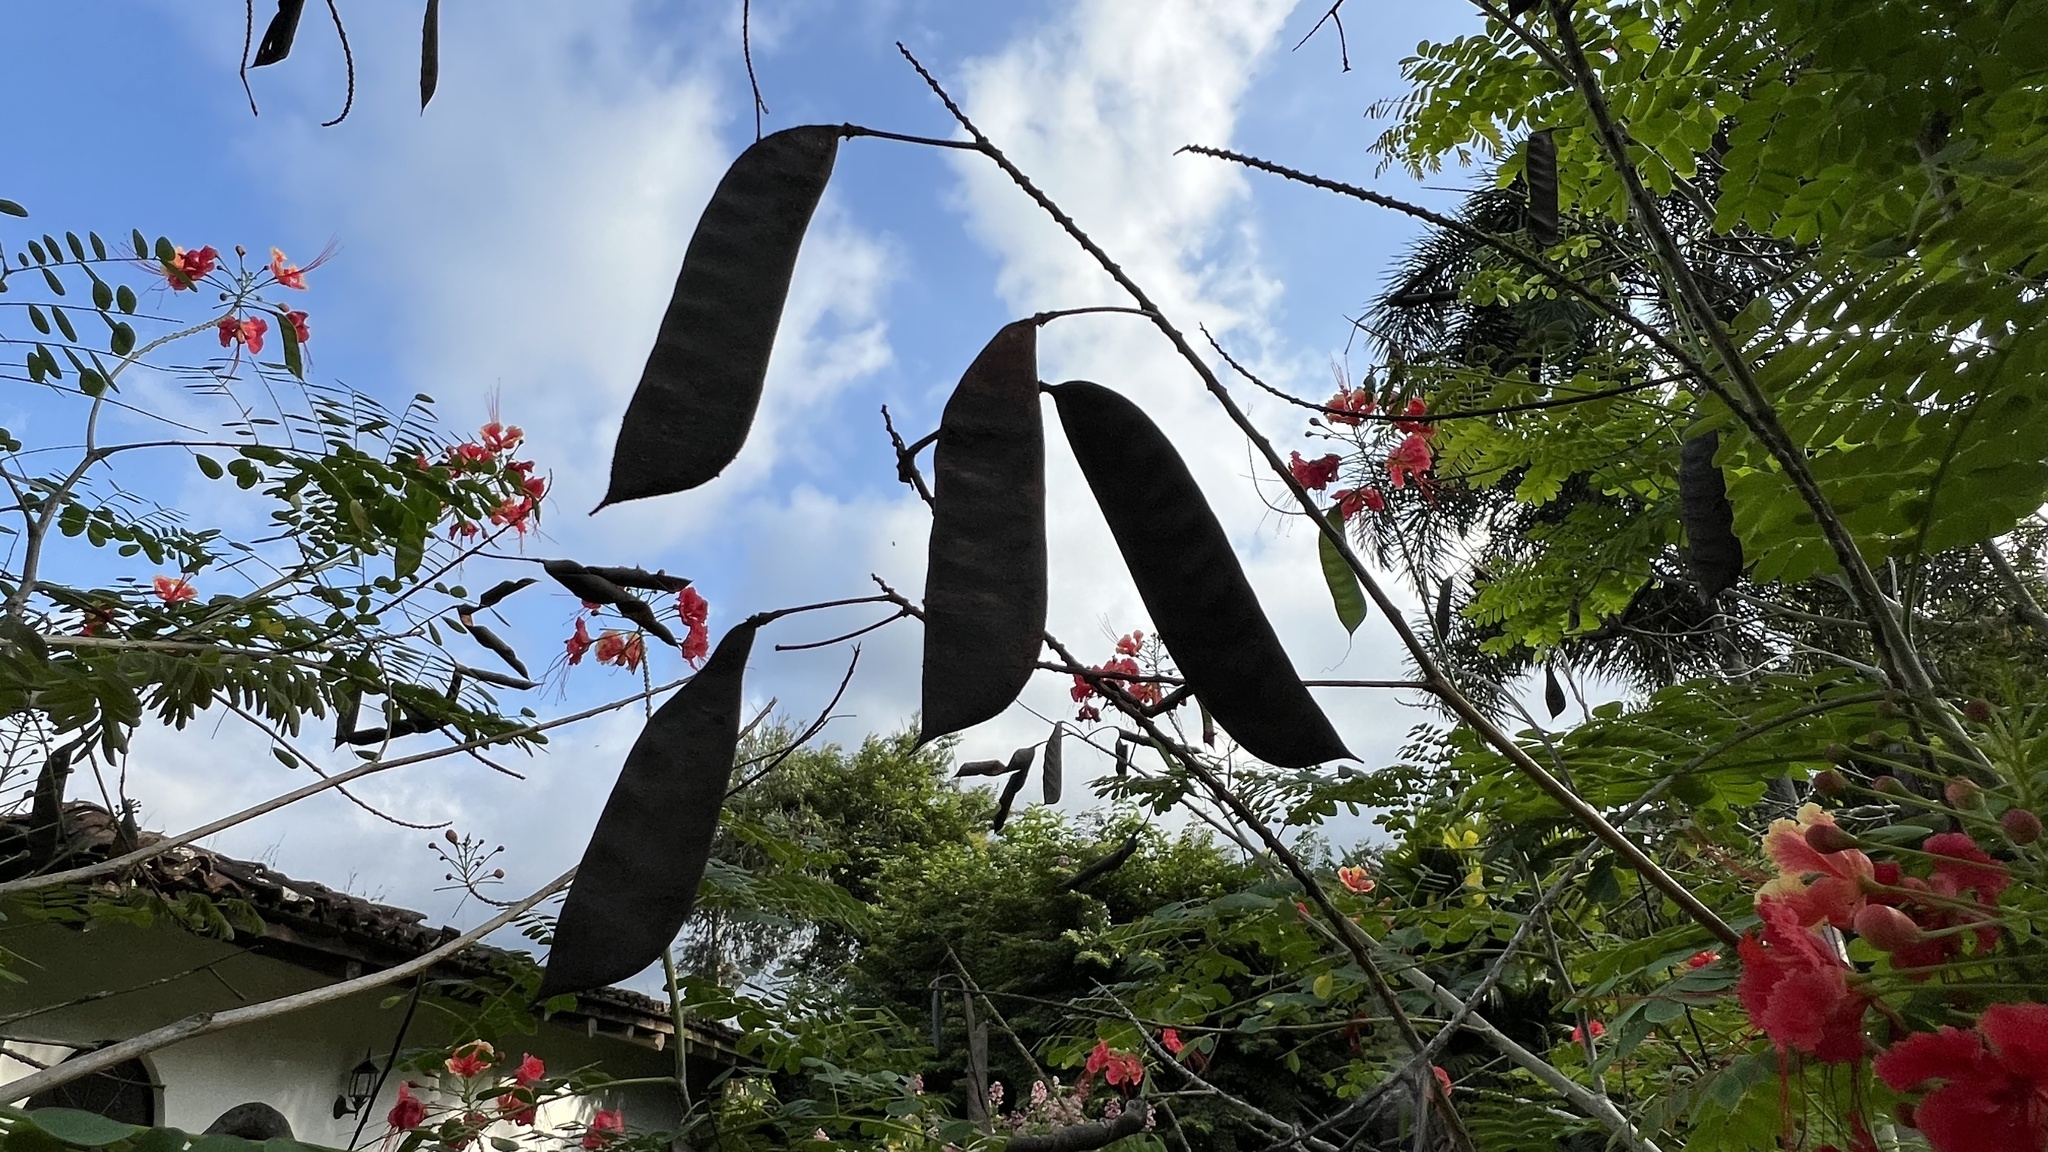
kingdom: Plantae
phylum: Tracheophyta
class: Magnoliopsida
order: Fabales
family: Fabaceae
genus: Caesalpinia
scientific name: Caesalpinia pulcherrima
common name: Pride-of-barbados
